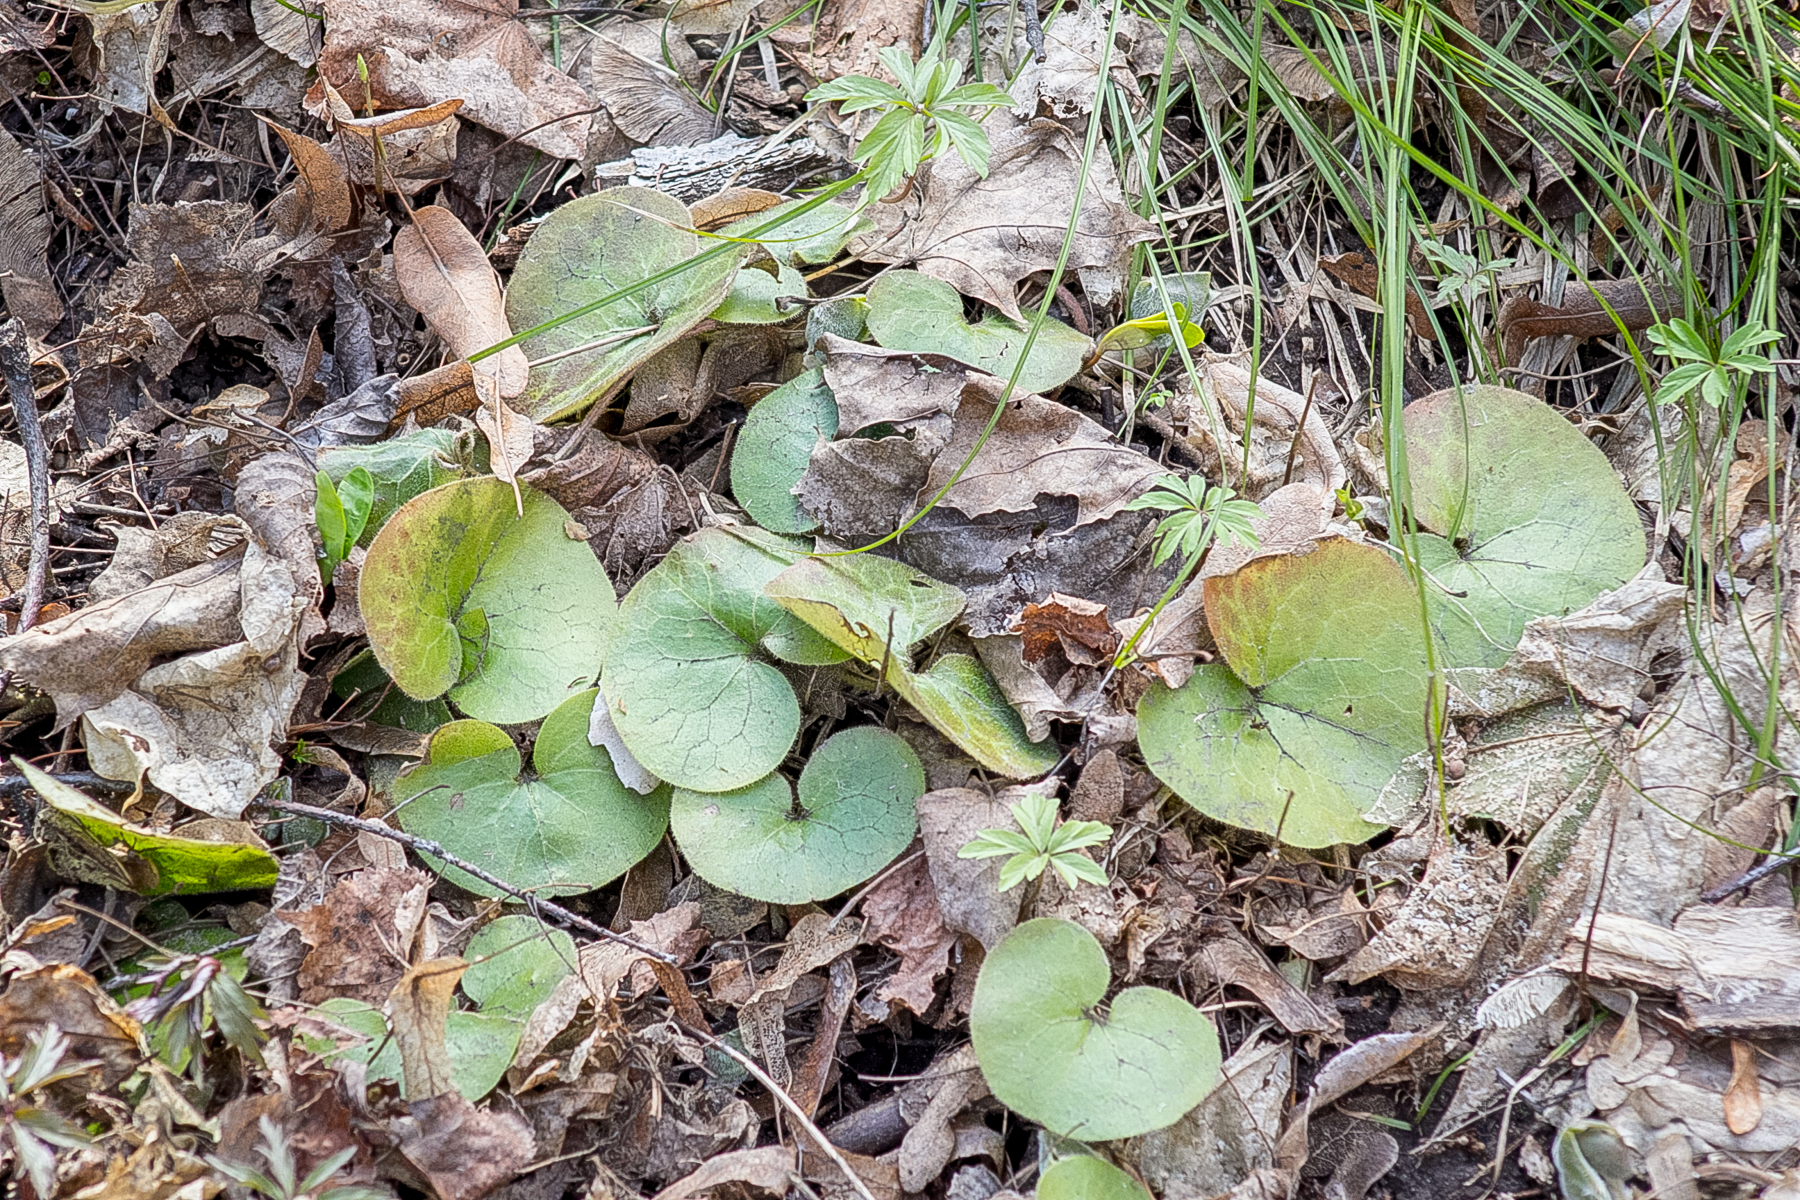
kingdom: Plantae
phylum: Tracheophyta
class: Magnoliopsida
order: Piperales
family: Aristolochiaceae
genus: Asarum
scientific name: Asarum europaeum
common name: Asarabacca
